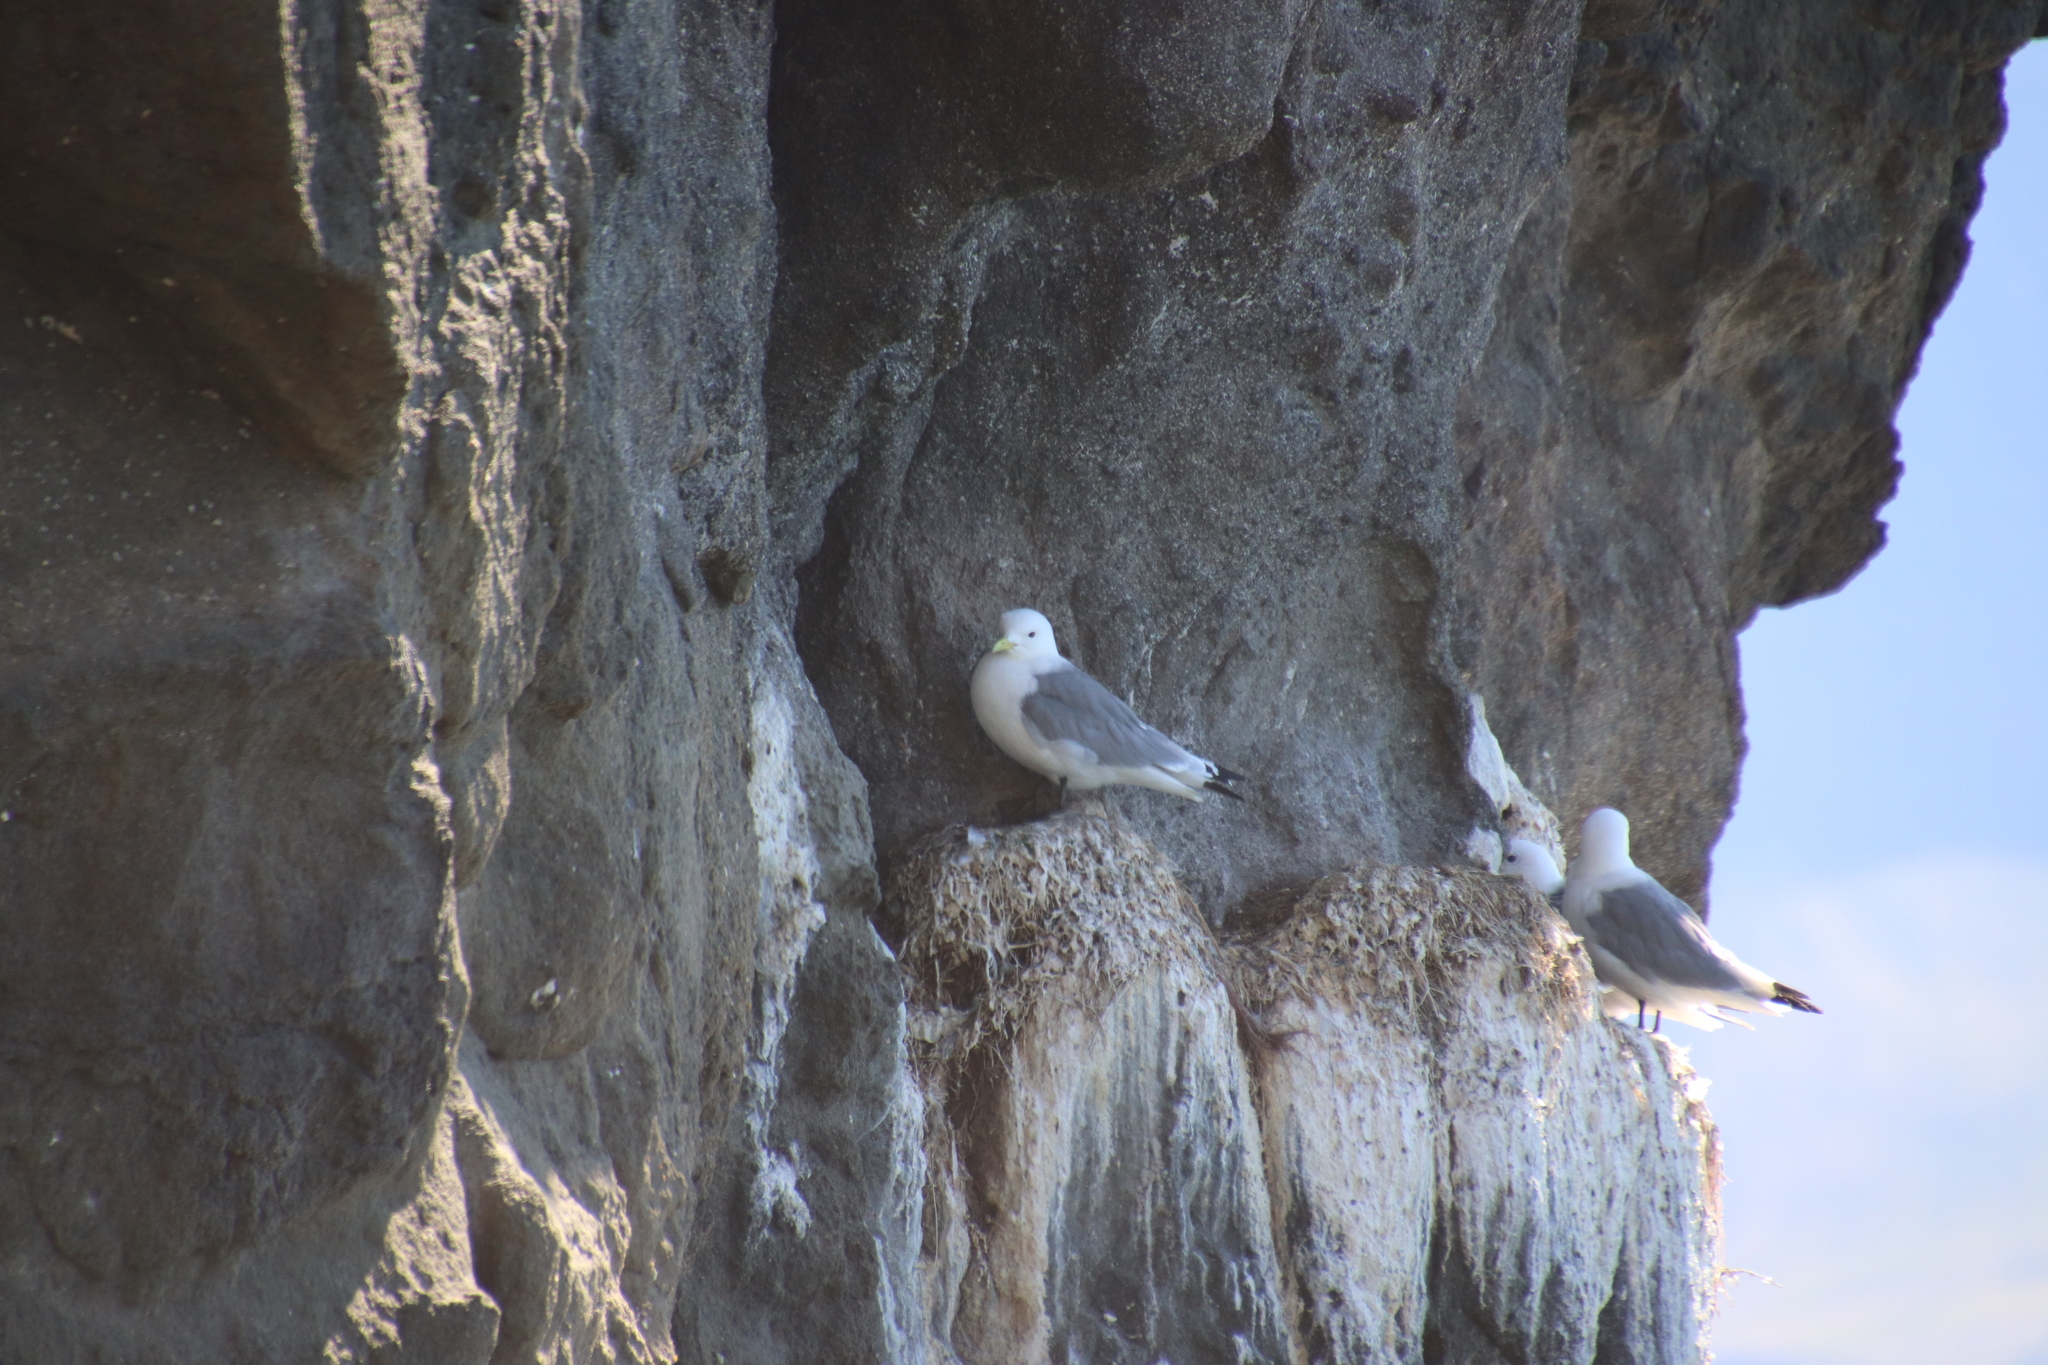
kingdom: Animalia
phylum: Chordata
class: Aves
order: Charadriiformes
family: Laridae
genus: Rissa
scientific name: Rissa tridactyla
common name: Black-legged kittiwake
